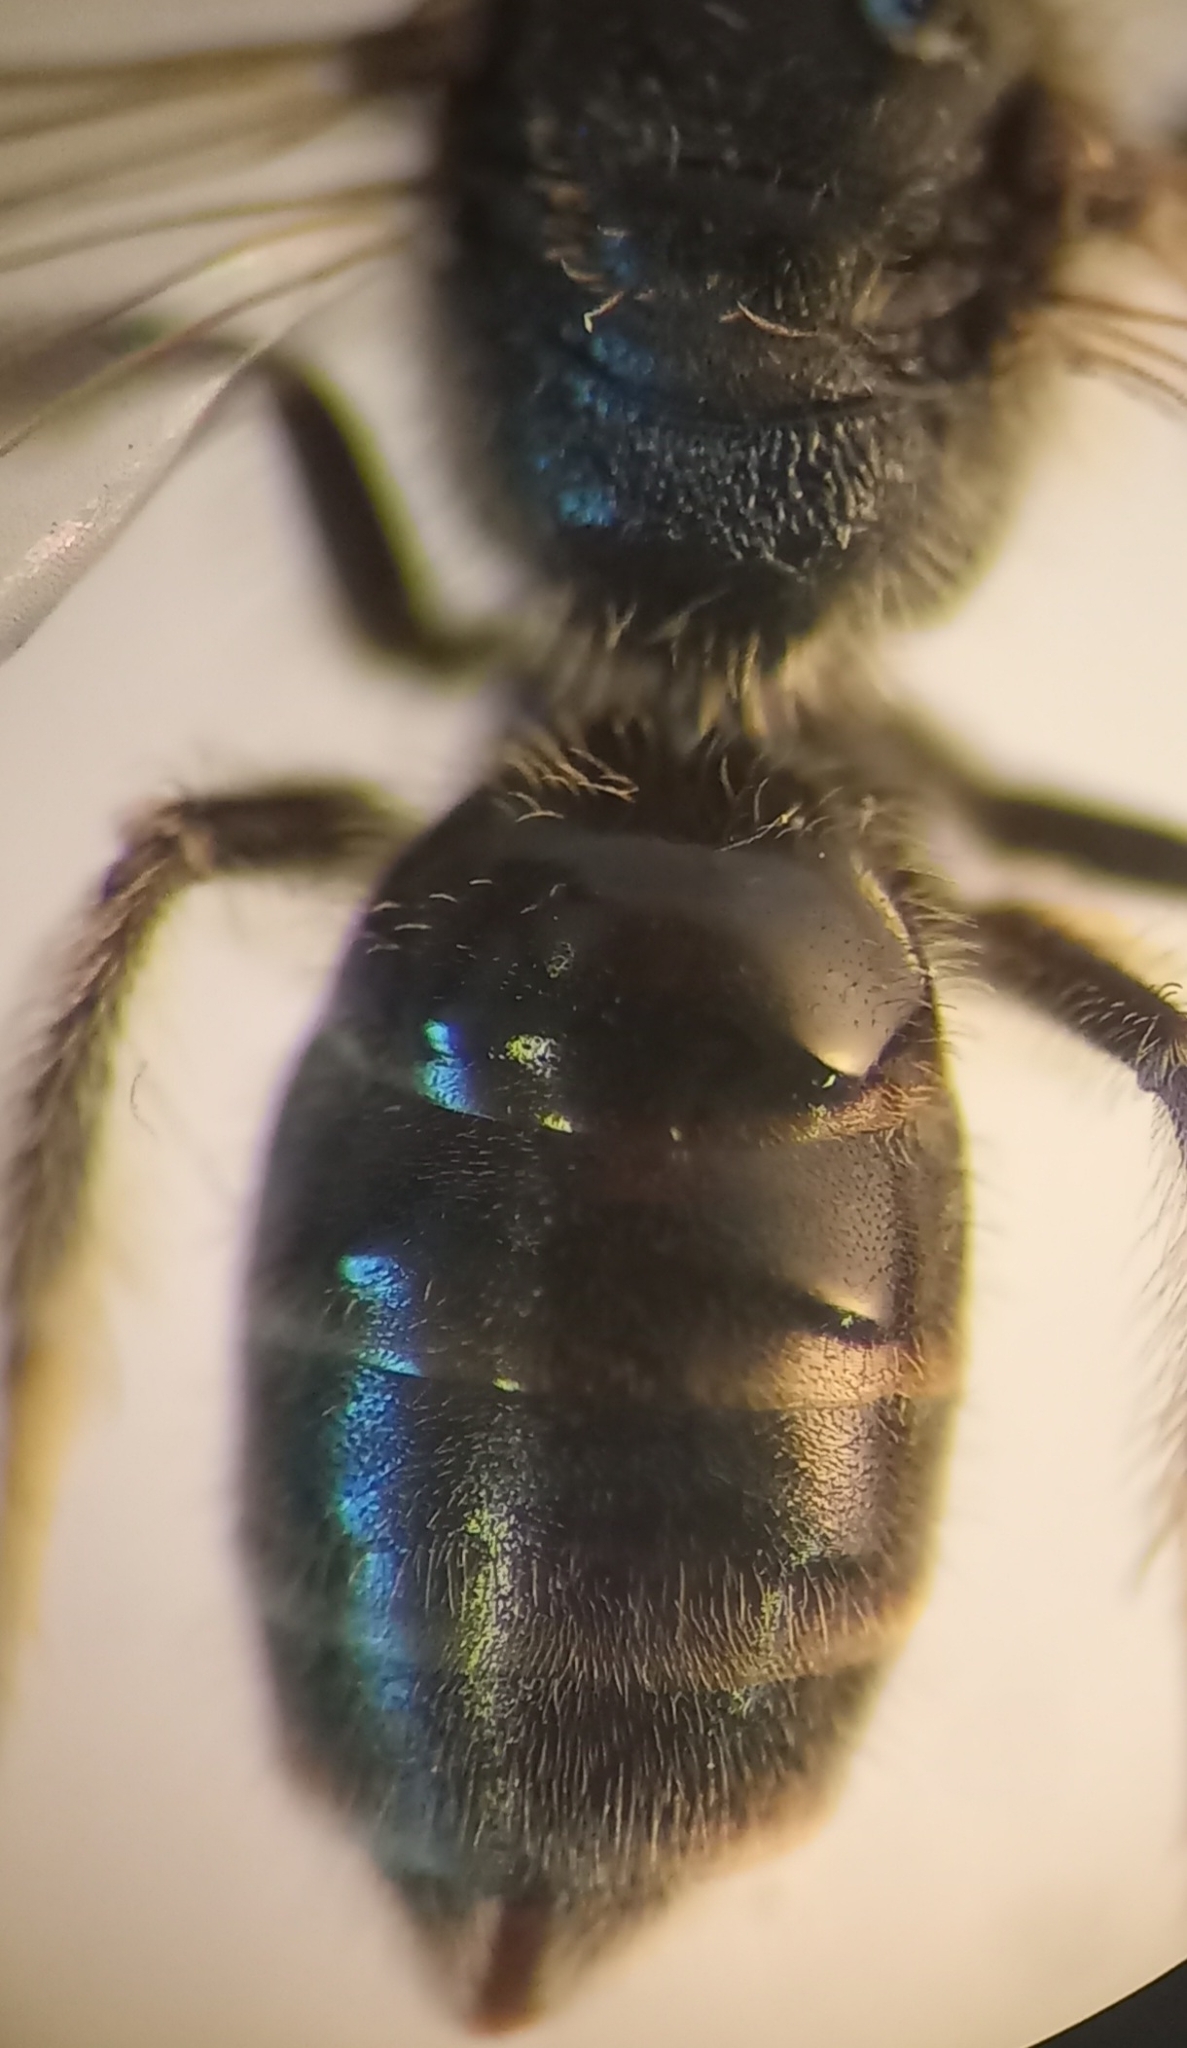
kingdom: Animalia
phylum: Arthropoda
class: Insecta
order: Hymenoptera
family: Halictidae
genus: Lasioglossum
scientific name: Lasioglossum pauxillum
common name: Lobe-spurred furrow bee
